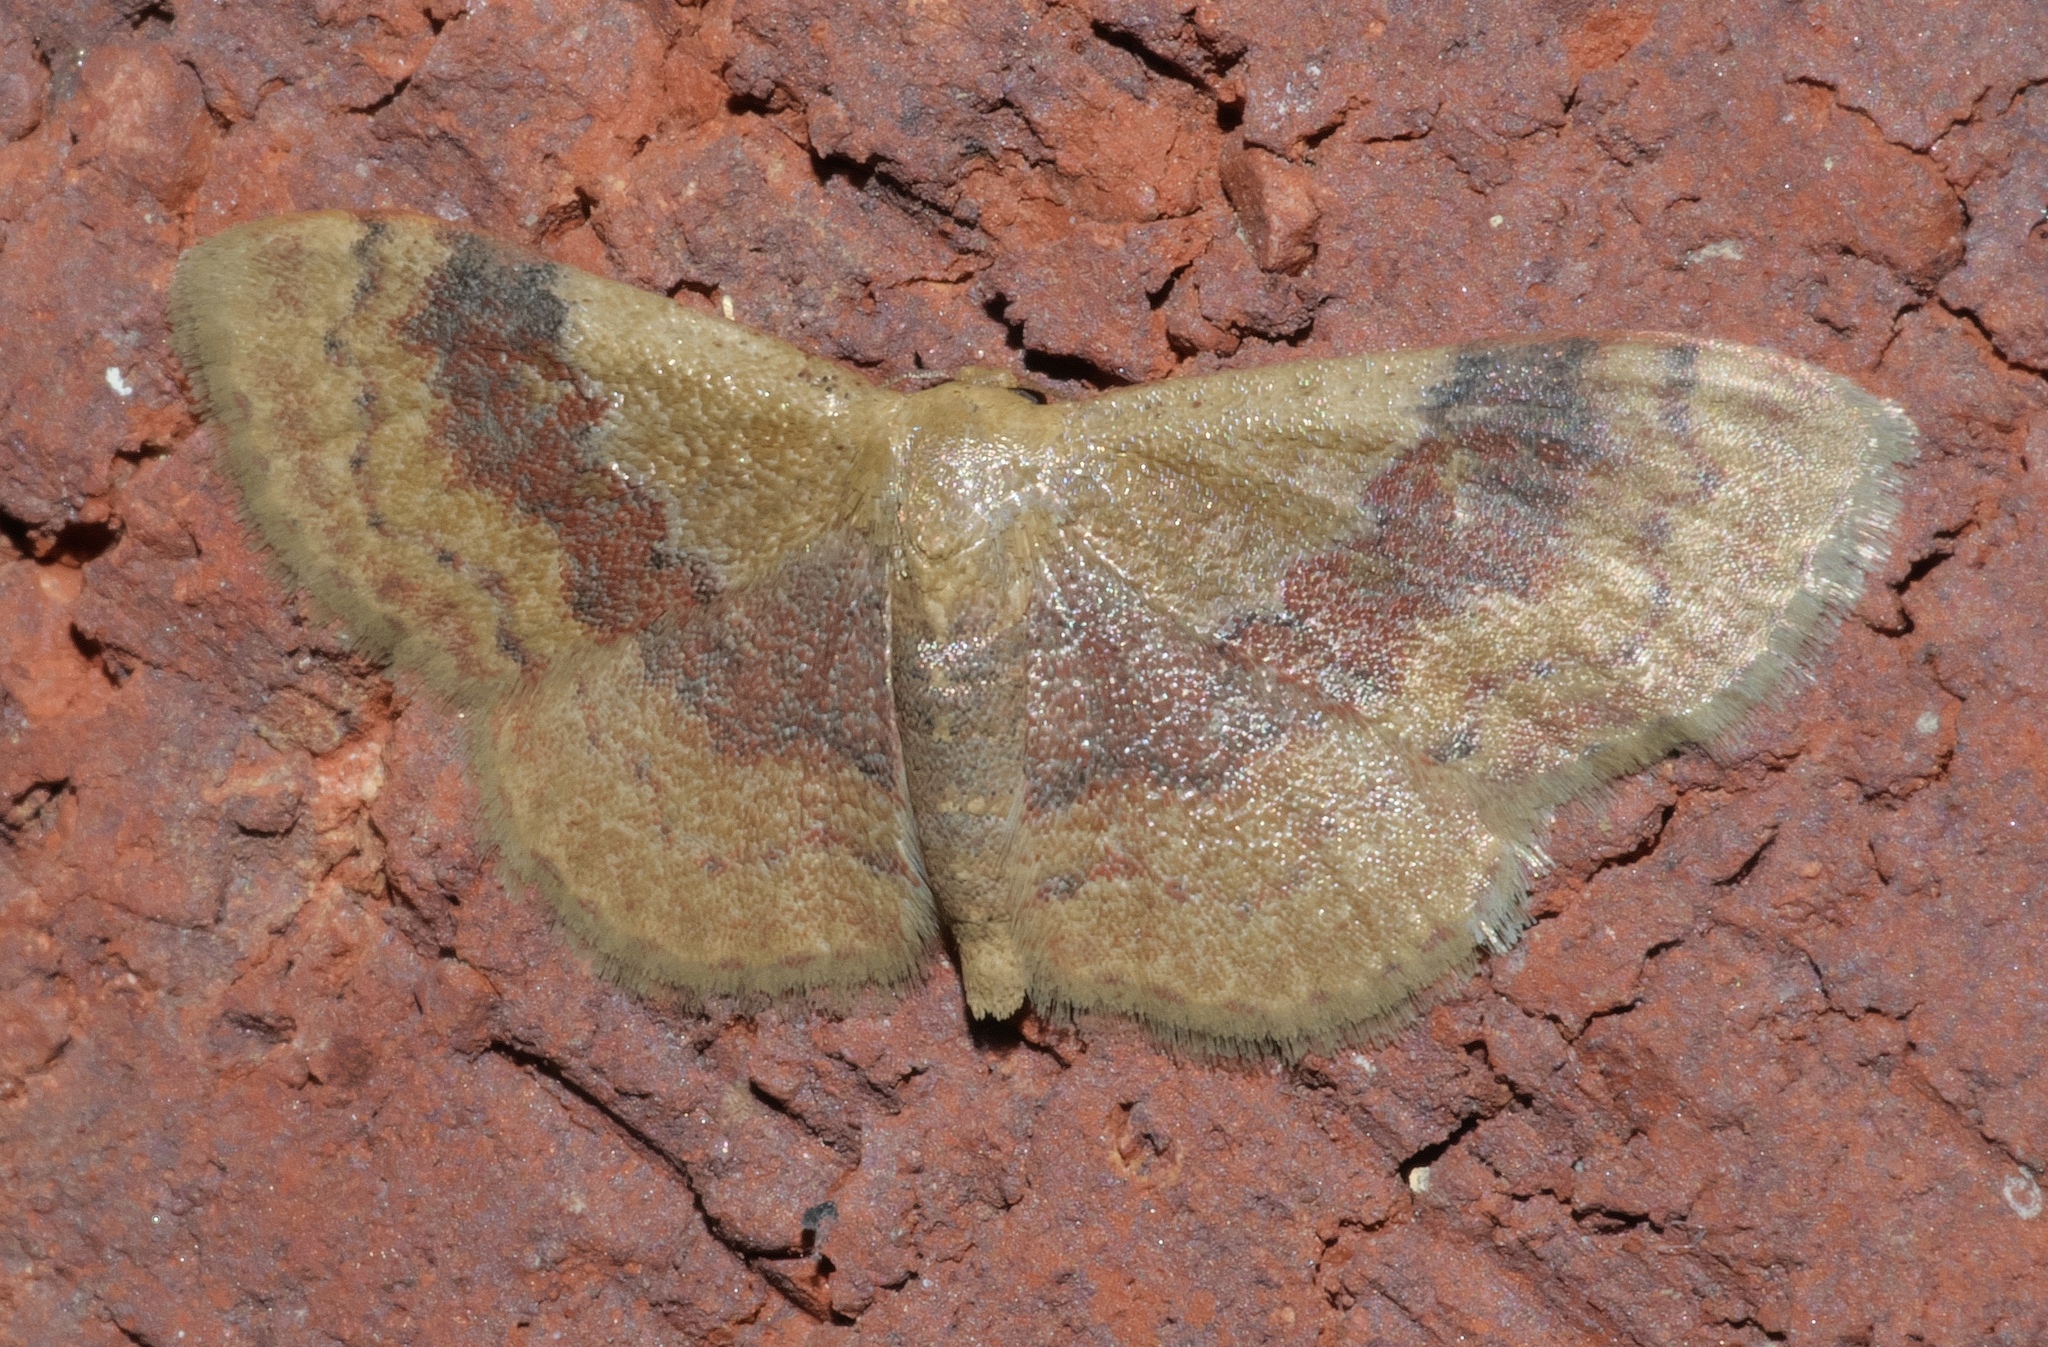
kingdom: Animalia
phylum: Arthropoda
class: Insecta
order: Lepidoptera
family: Geometridae
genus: Leptostales
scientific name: Leptostales ferruminaria
